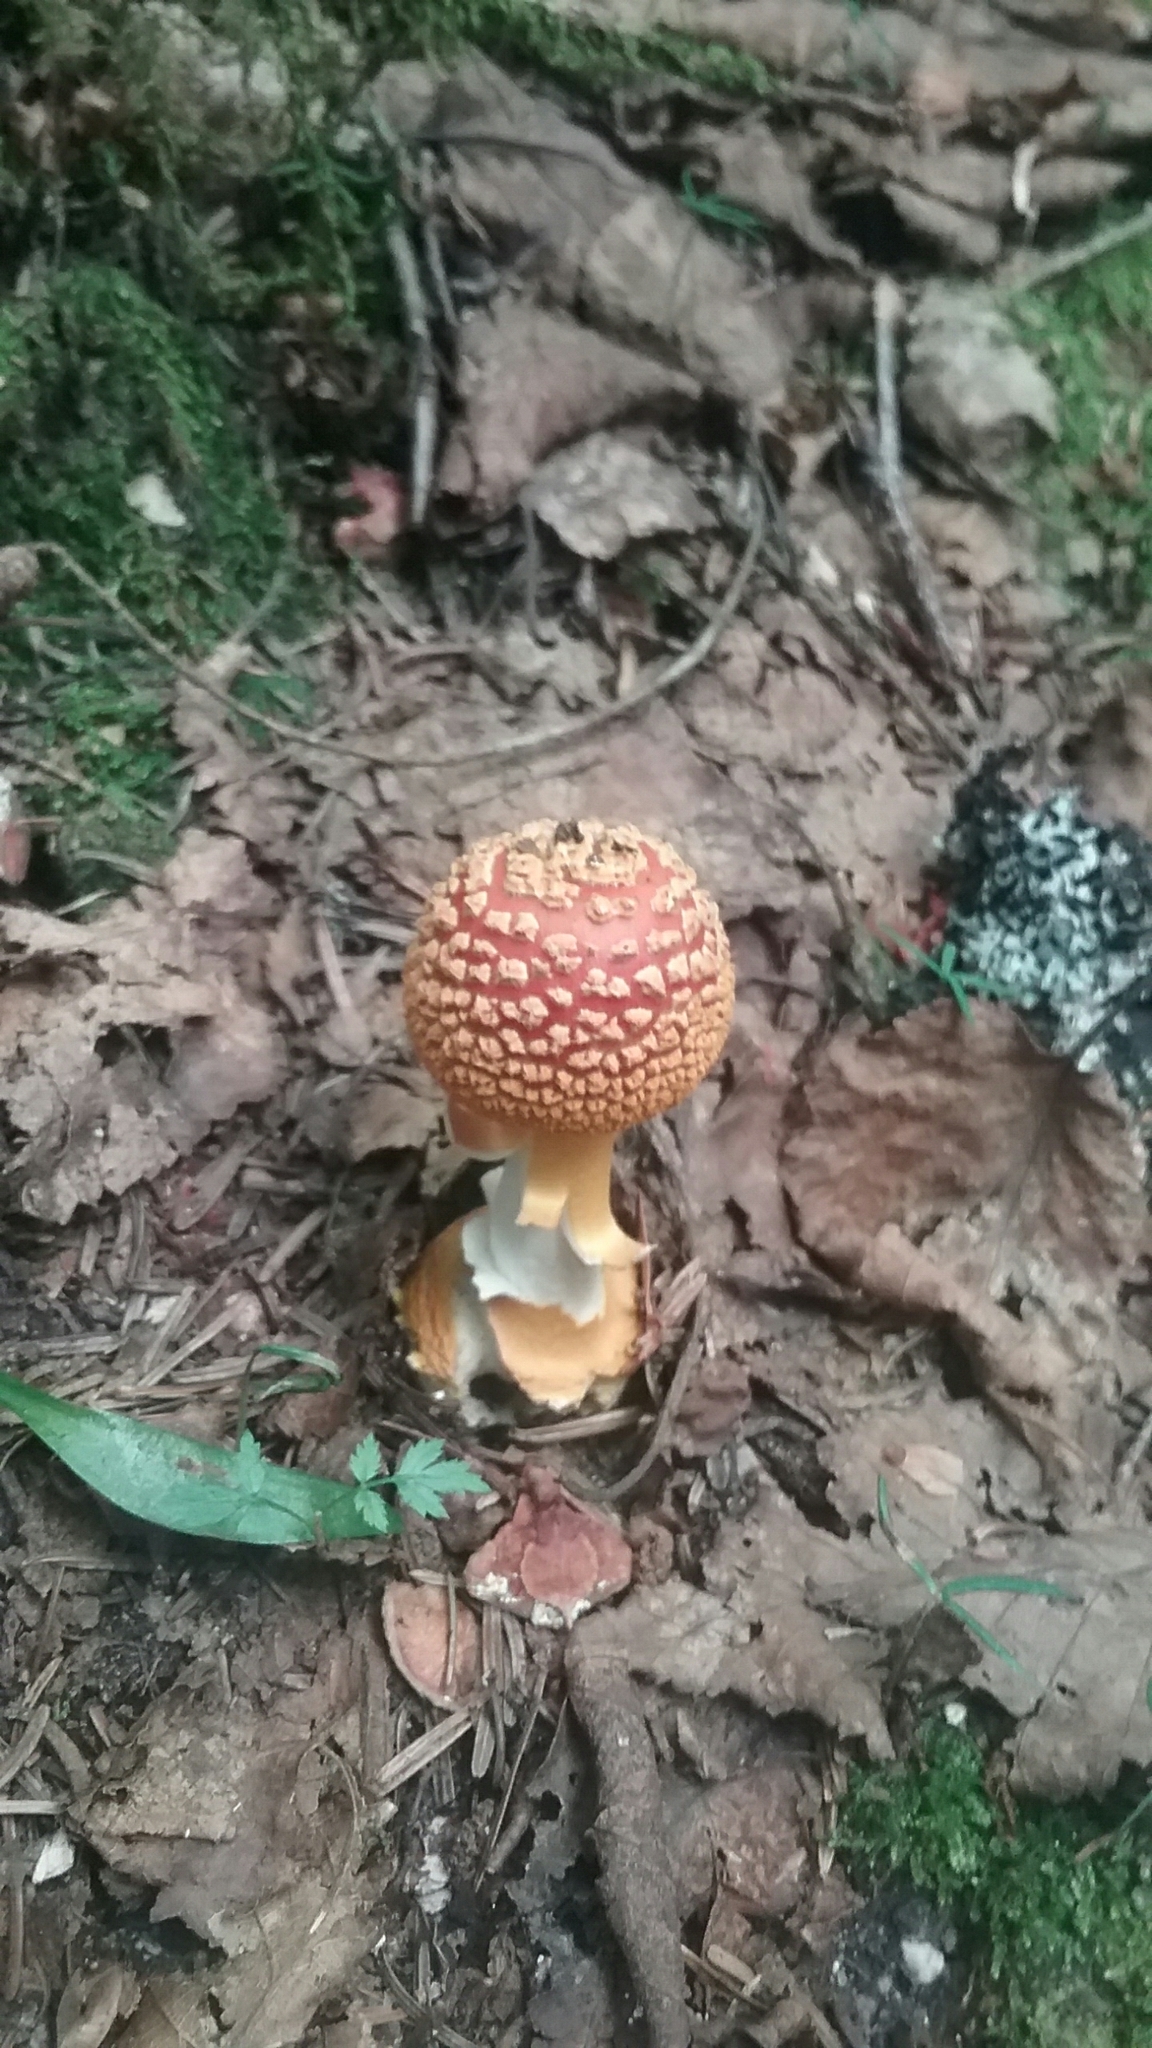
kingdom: Fungi
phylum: Basidiomycota
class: Agaricomycetes
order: Agaricales
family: Amanitaceae
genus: Amanita
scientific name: Amanita flavoconia
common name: Yellow patches
